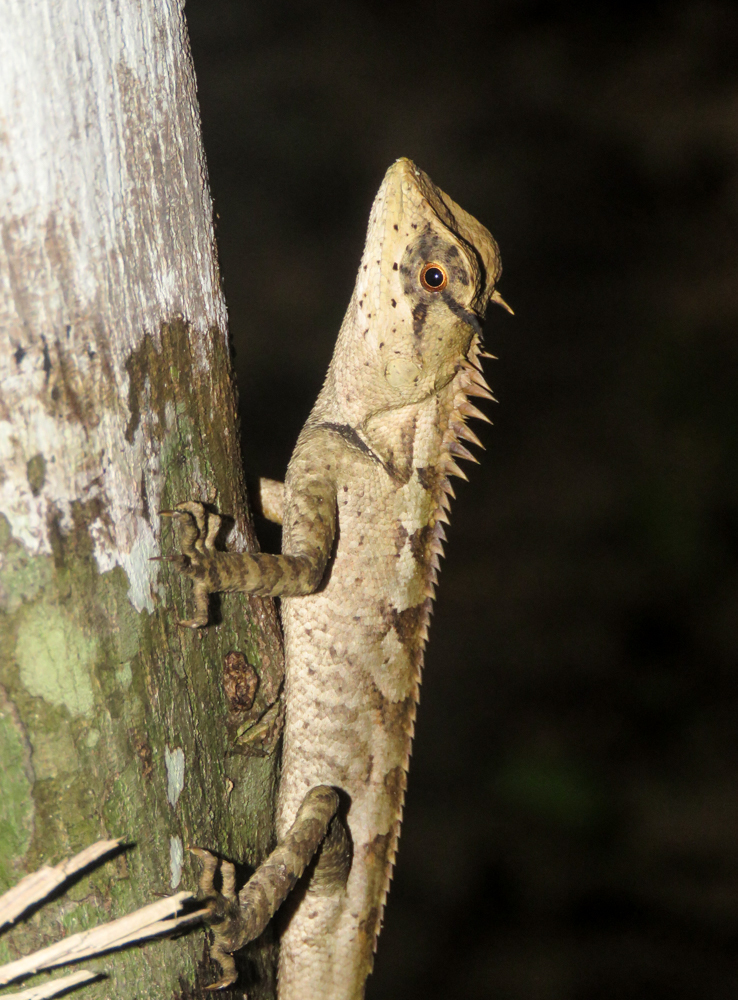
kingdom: Animalia
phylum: Chordata
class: Squamata
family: Agamidae
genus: Calotes
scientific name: Calotes emma
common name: Thailand bloodsucker
